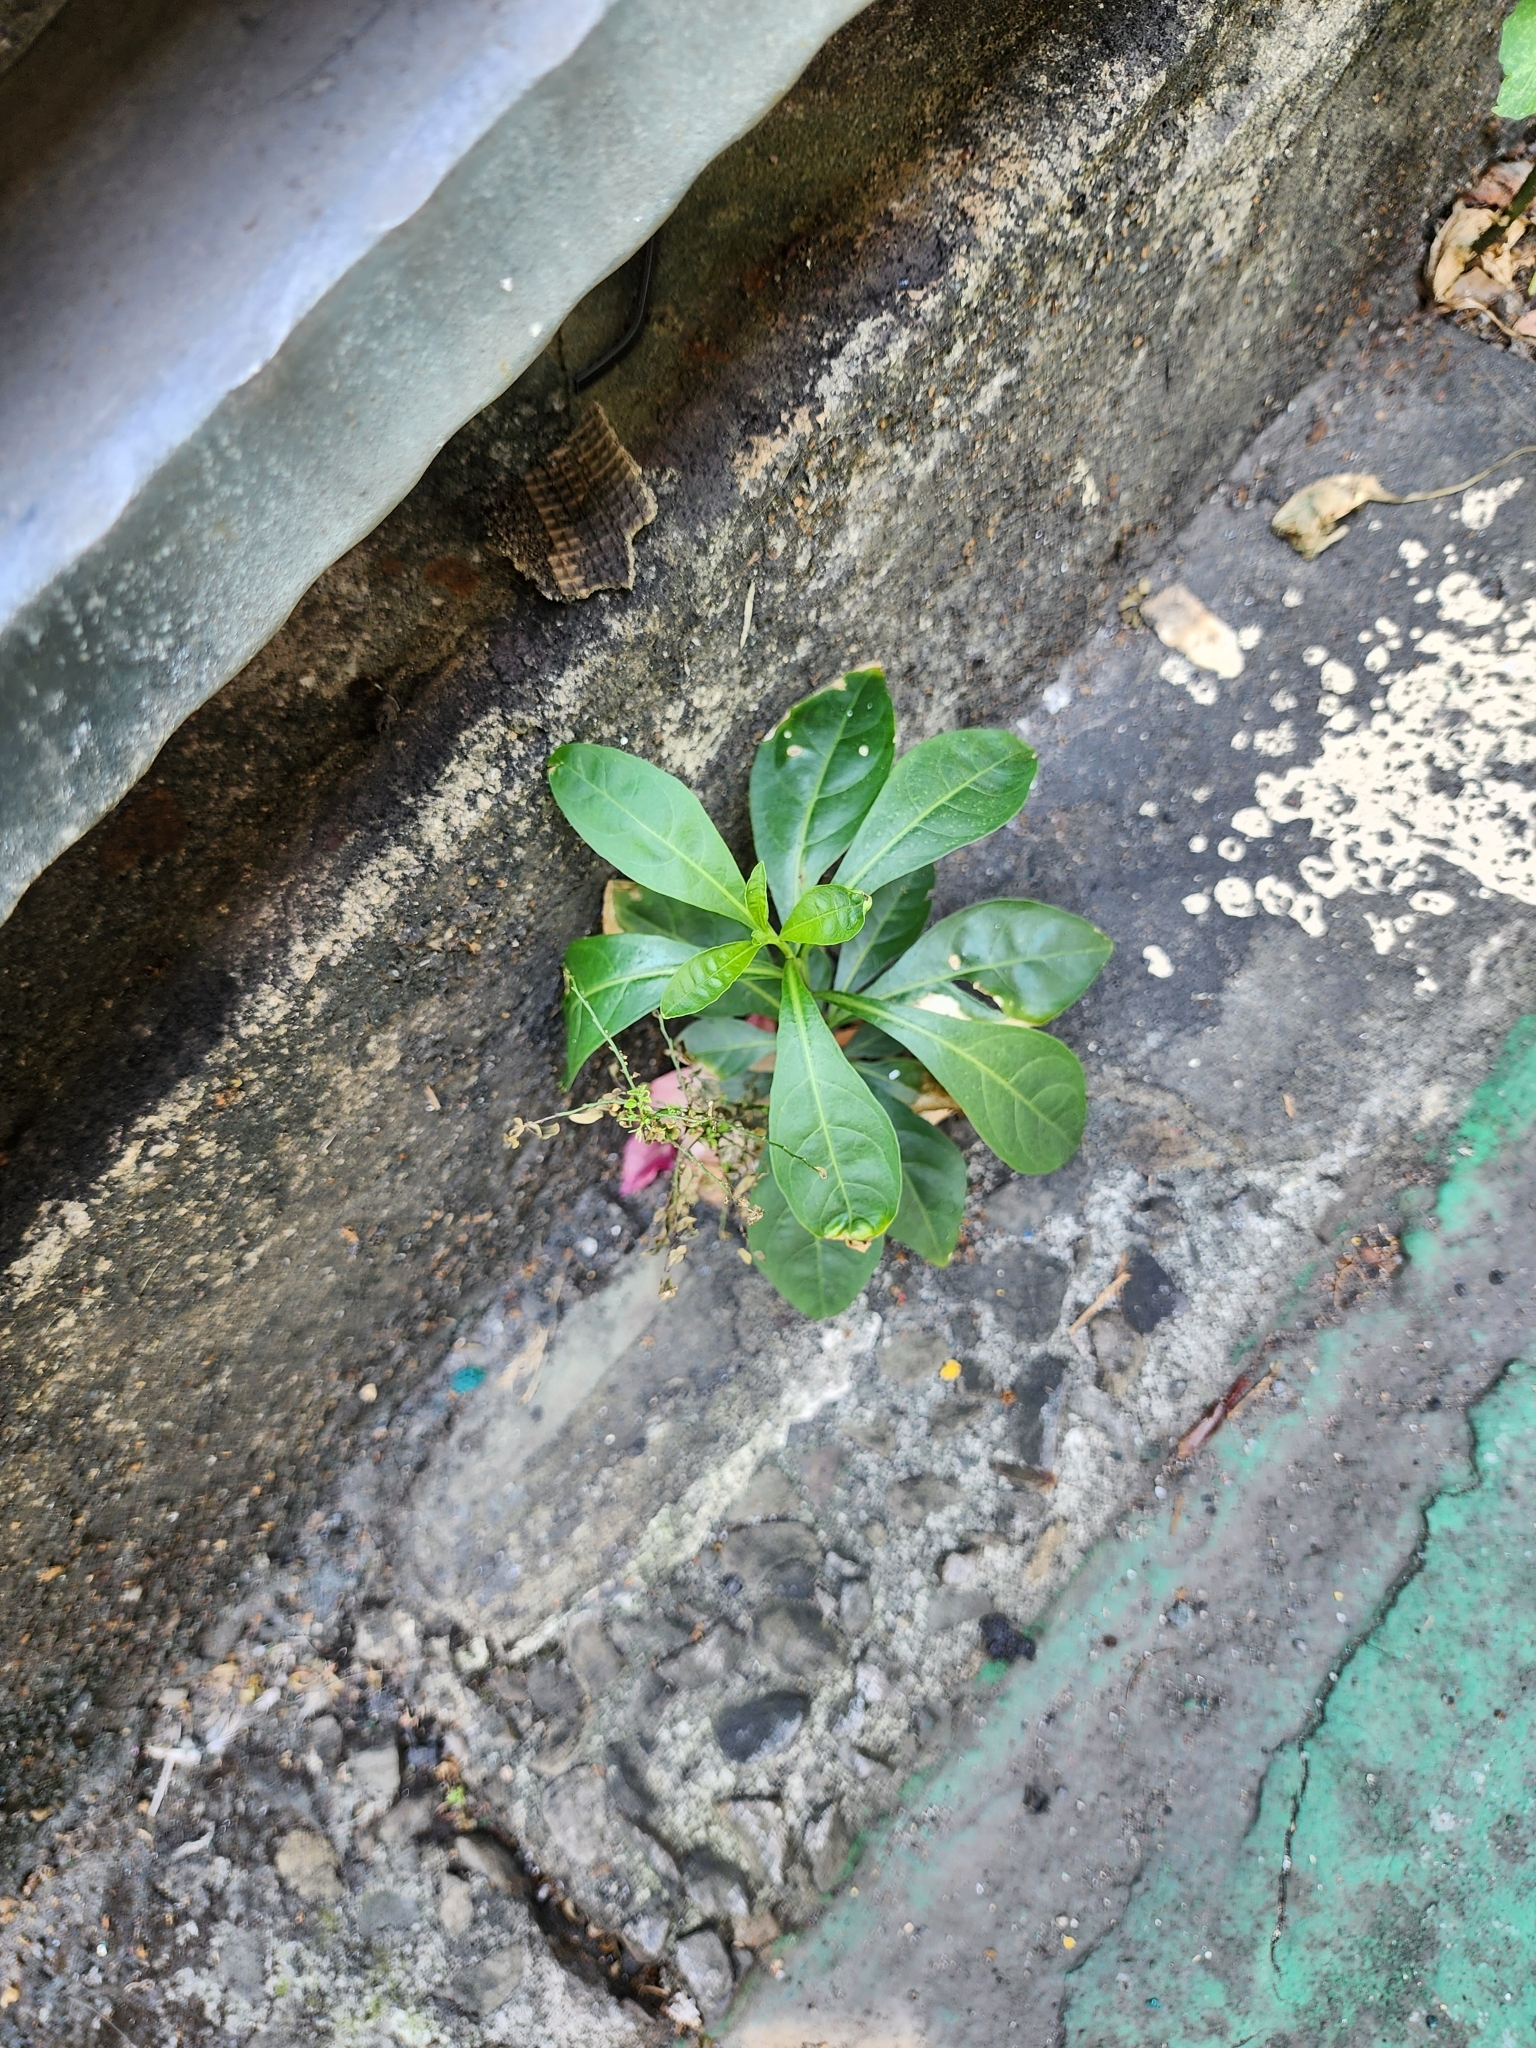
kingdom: Plantae
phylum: Tracheophyta
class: Magnoliopsida
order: Solanales
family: Solanaceae
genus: Solanum
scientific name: Solanum diphyllum
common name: Twoleaf nightshade
